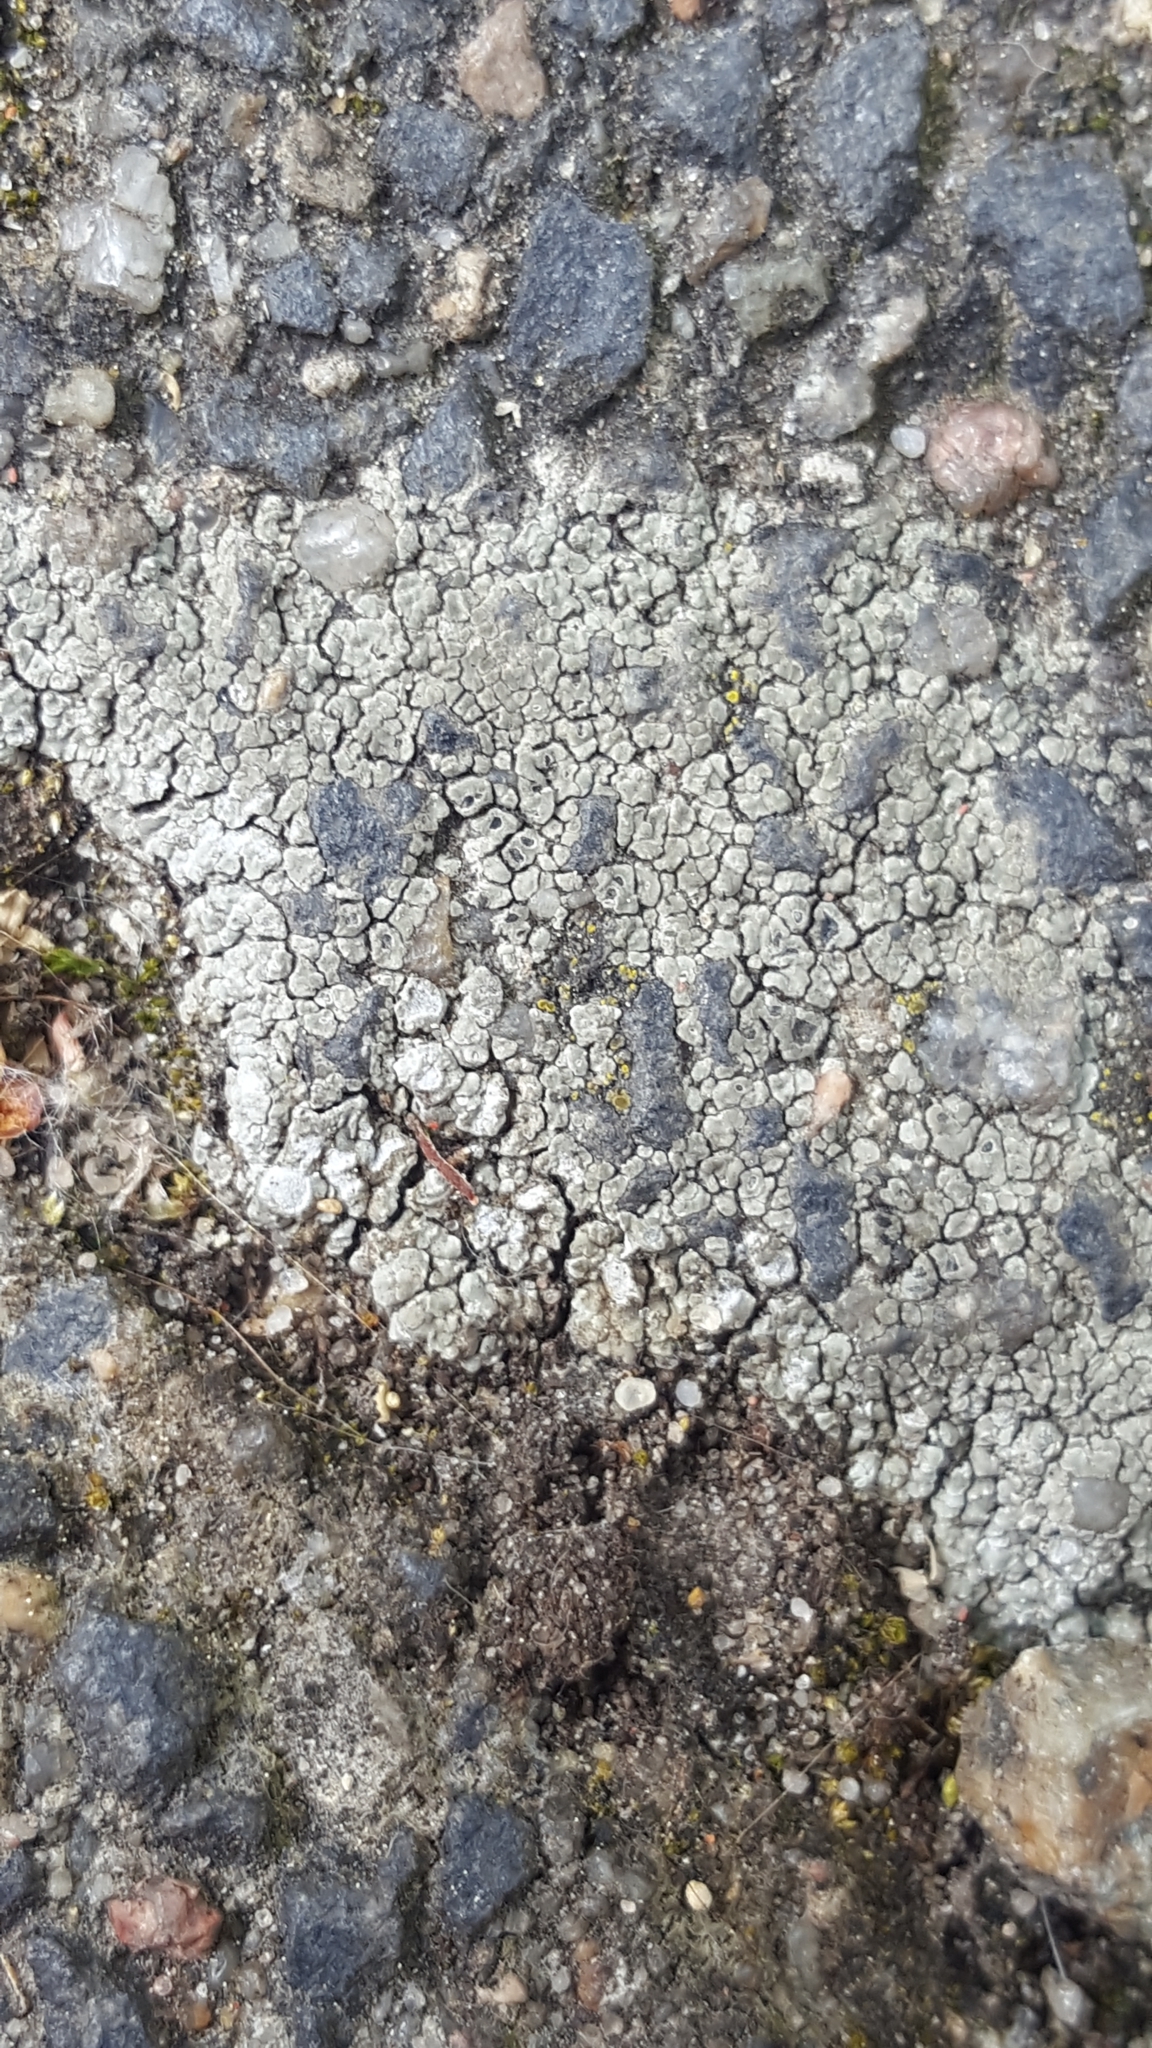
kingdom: Fungi
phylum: Ascomycota
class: Lecanoromycetes
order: Pertusariales
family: Megasporaceae
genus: Circinaria
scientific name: Circinaria contorta
